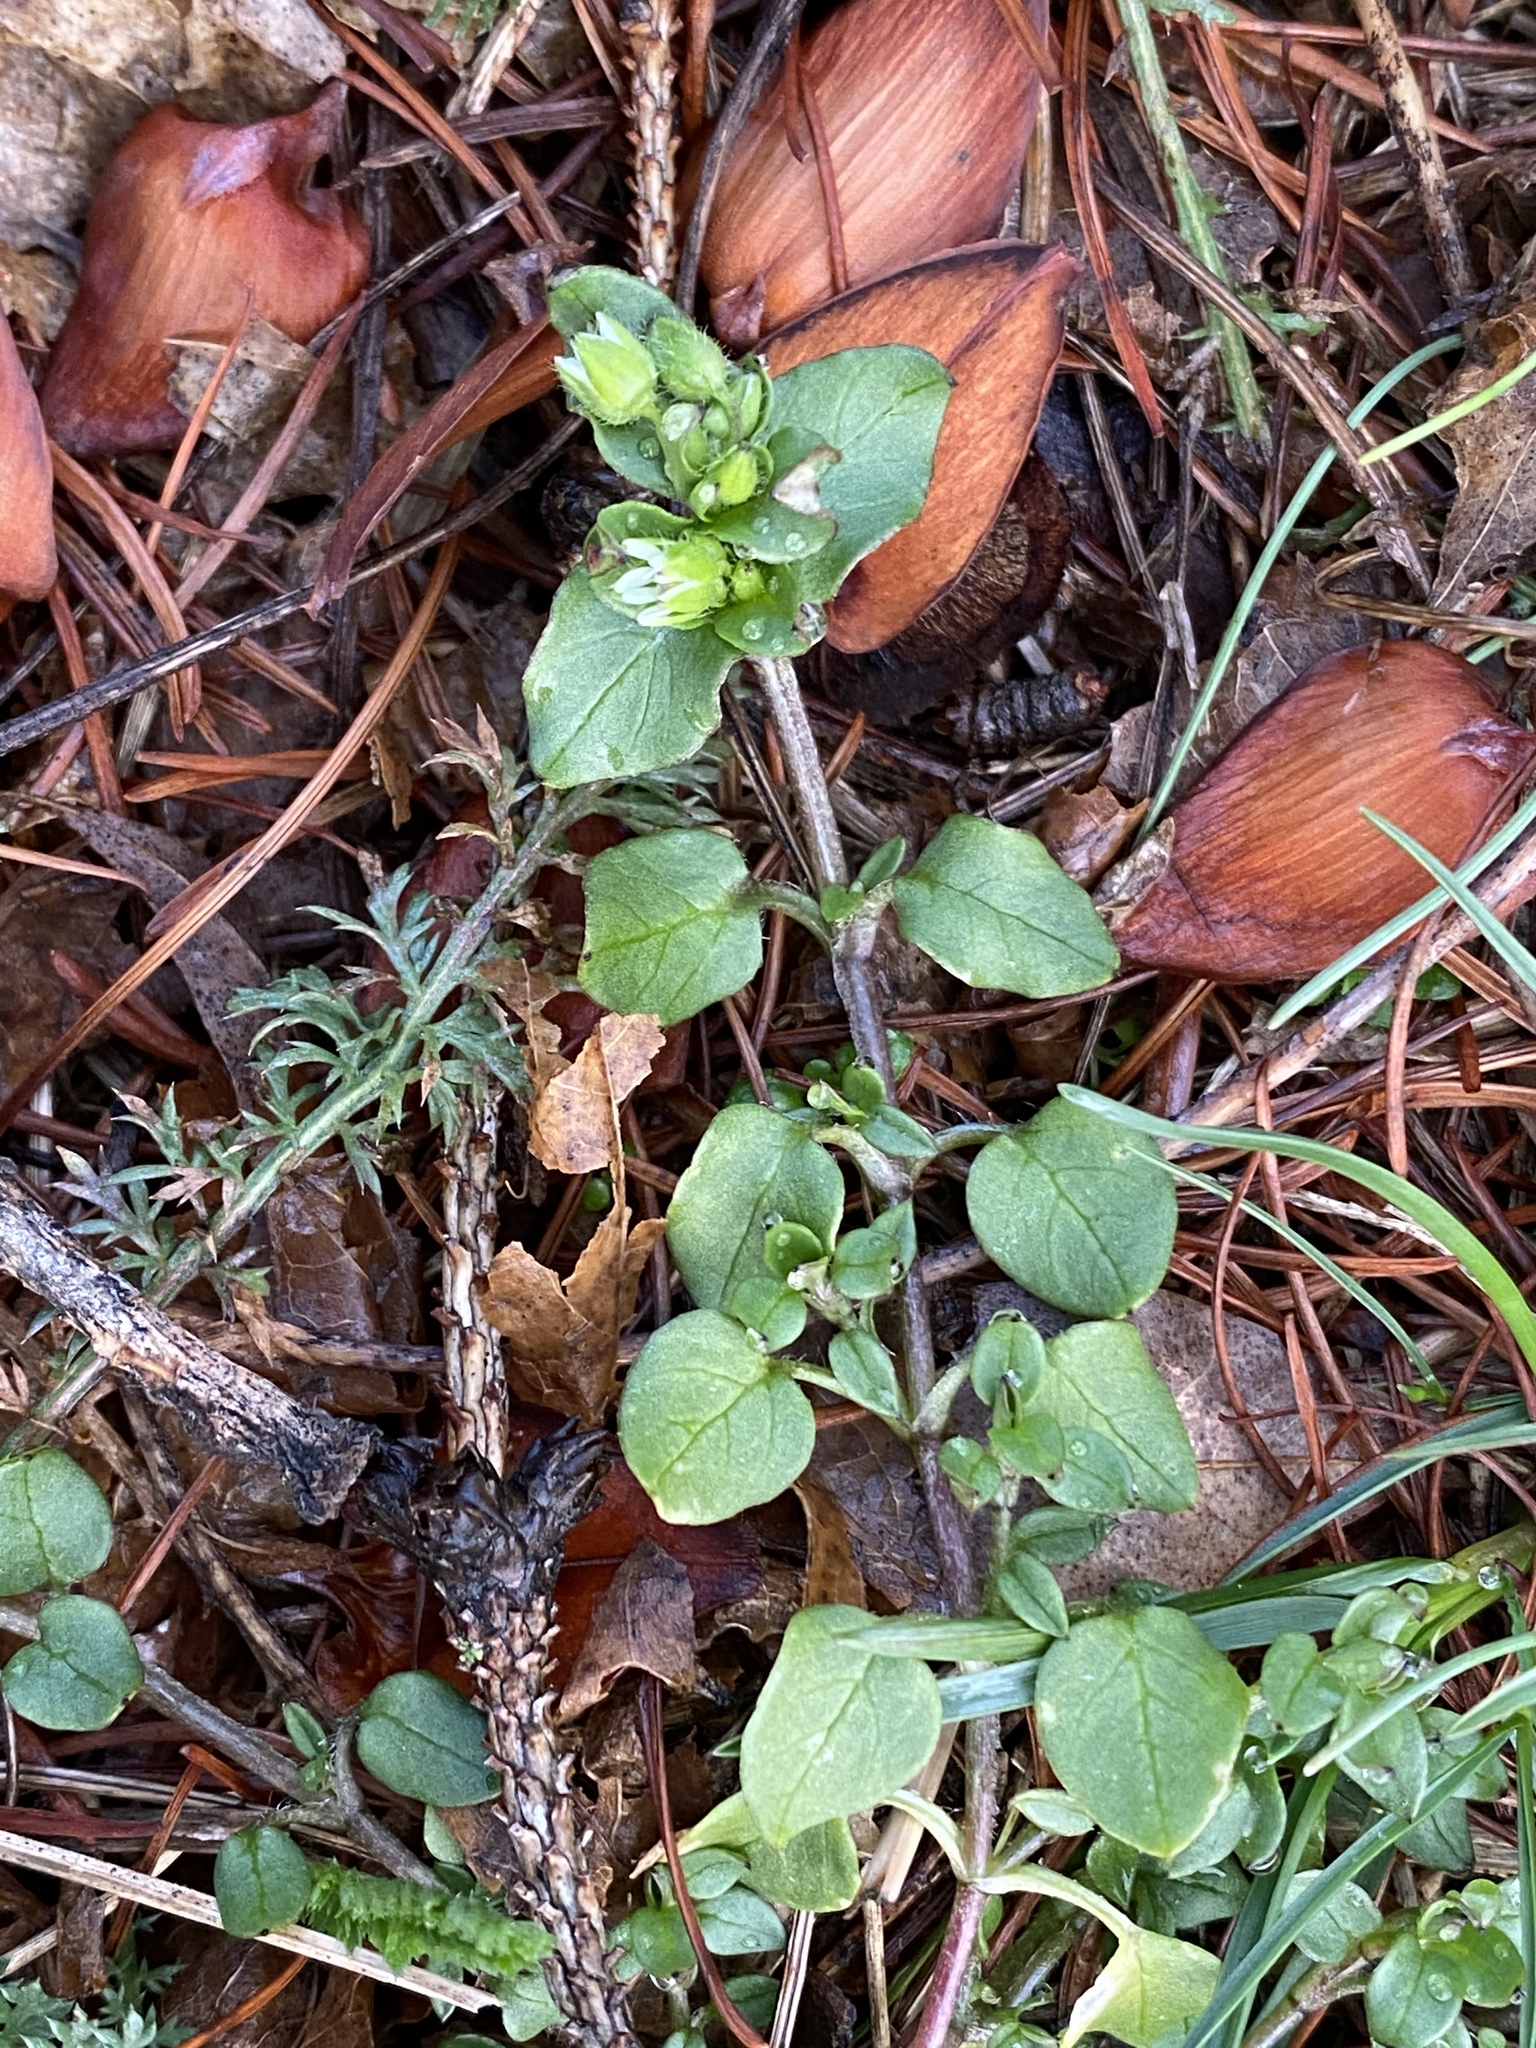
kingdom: Plantae
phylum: Tracheophyta
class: Magnoliopsida
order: Caryophyllales
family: Caryophyllaceae
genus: Stellaria
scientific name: Stellaria media
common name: Common chickweed
